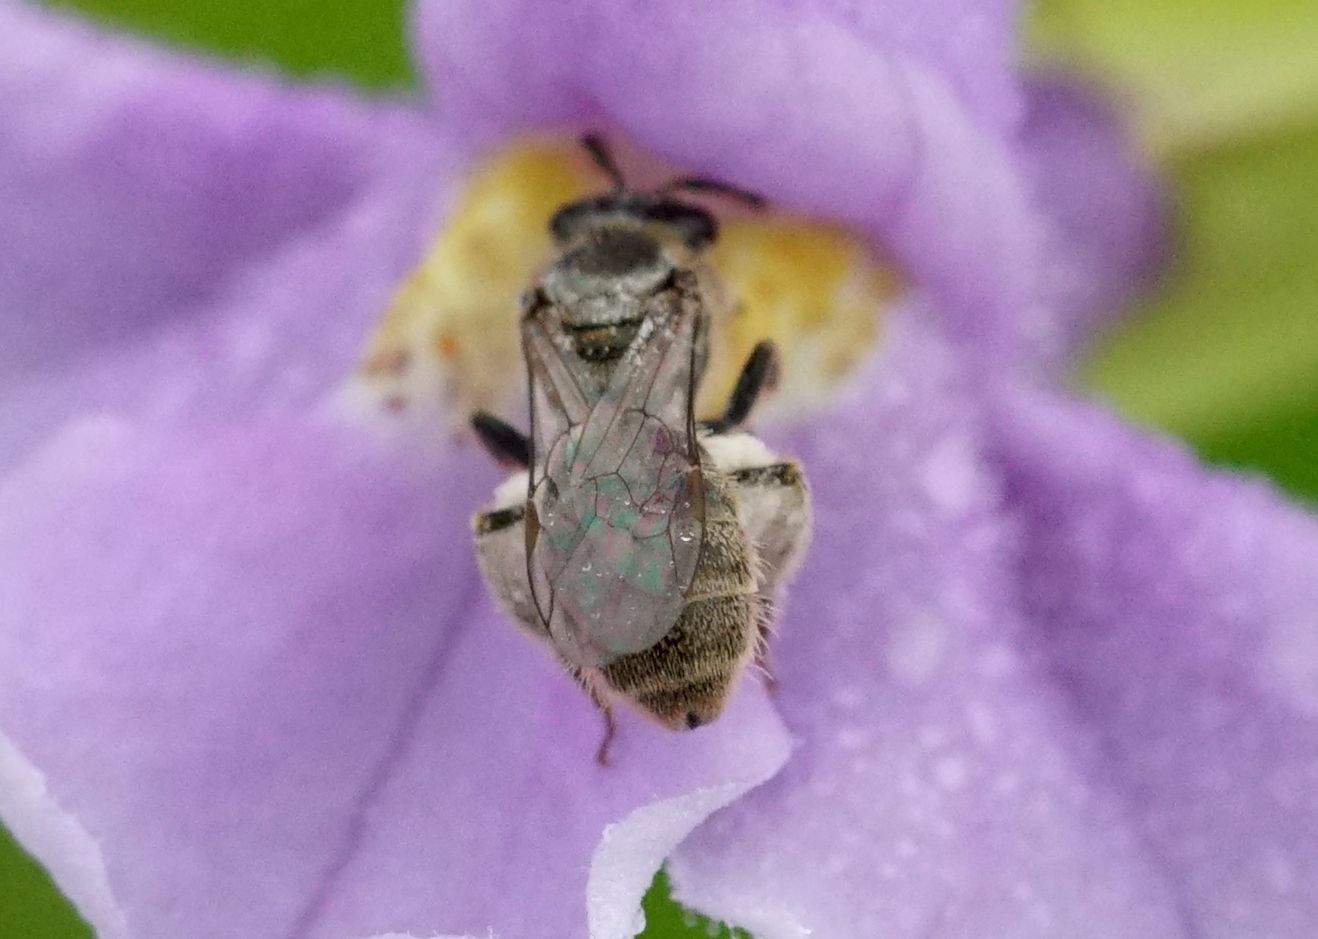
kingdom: Animalia
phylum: Arthropoda
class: Insecta
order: Hymenoptera
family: Halictidae
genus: Dialictus
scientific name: Dialictus
